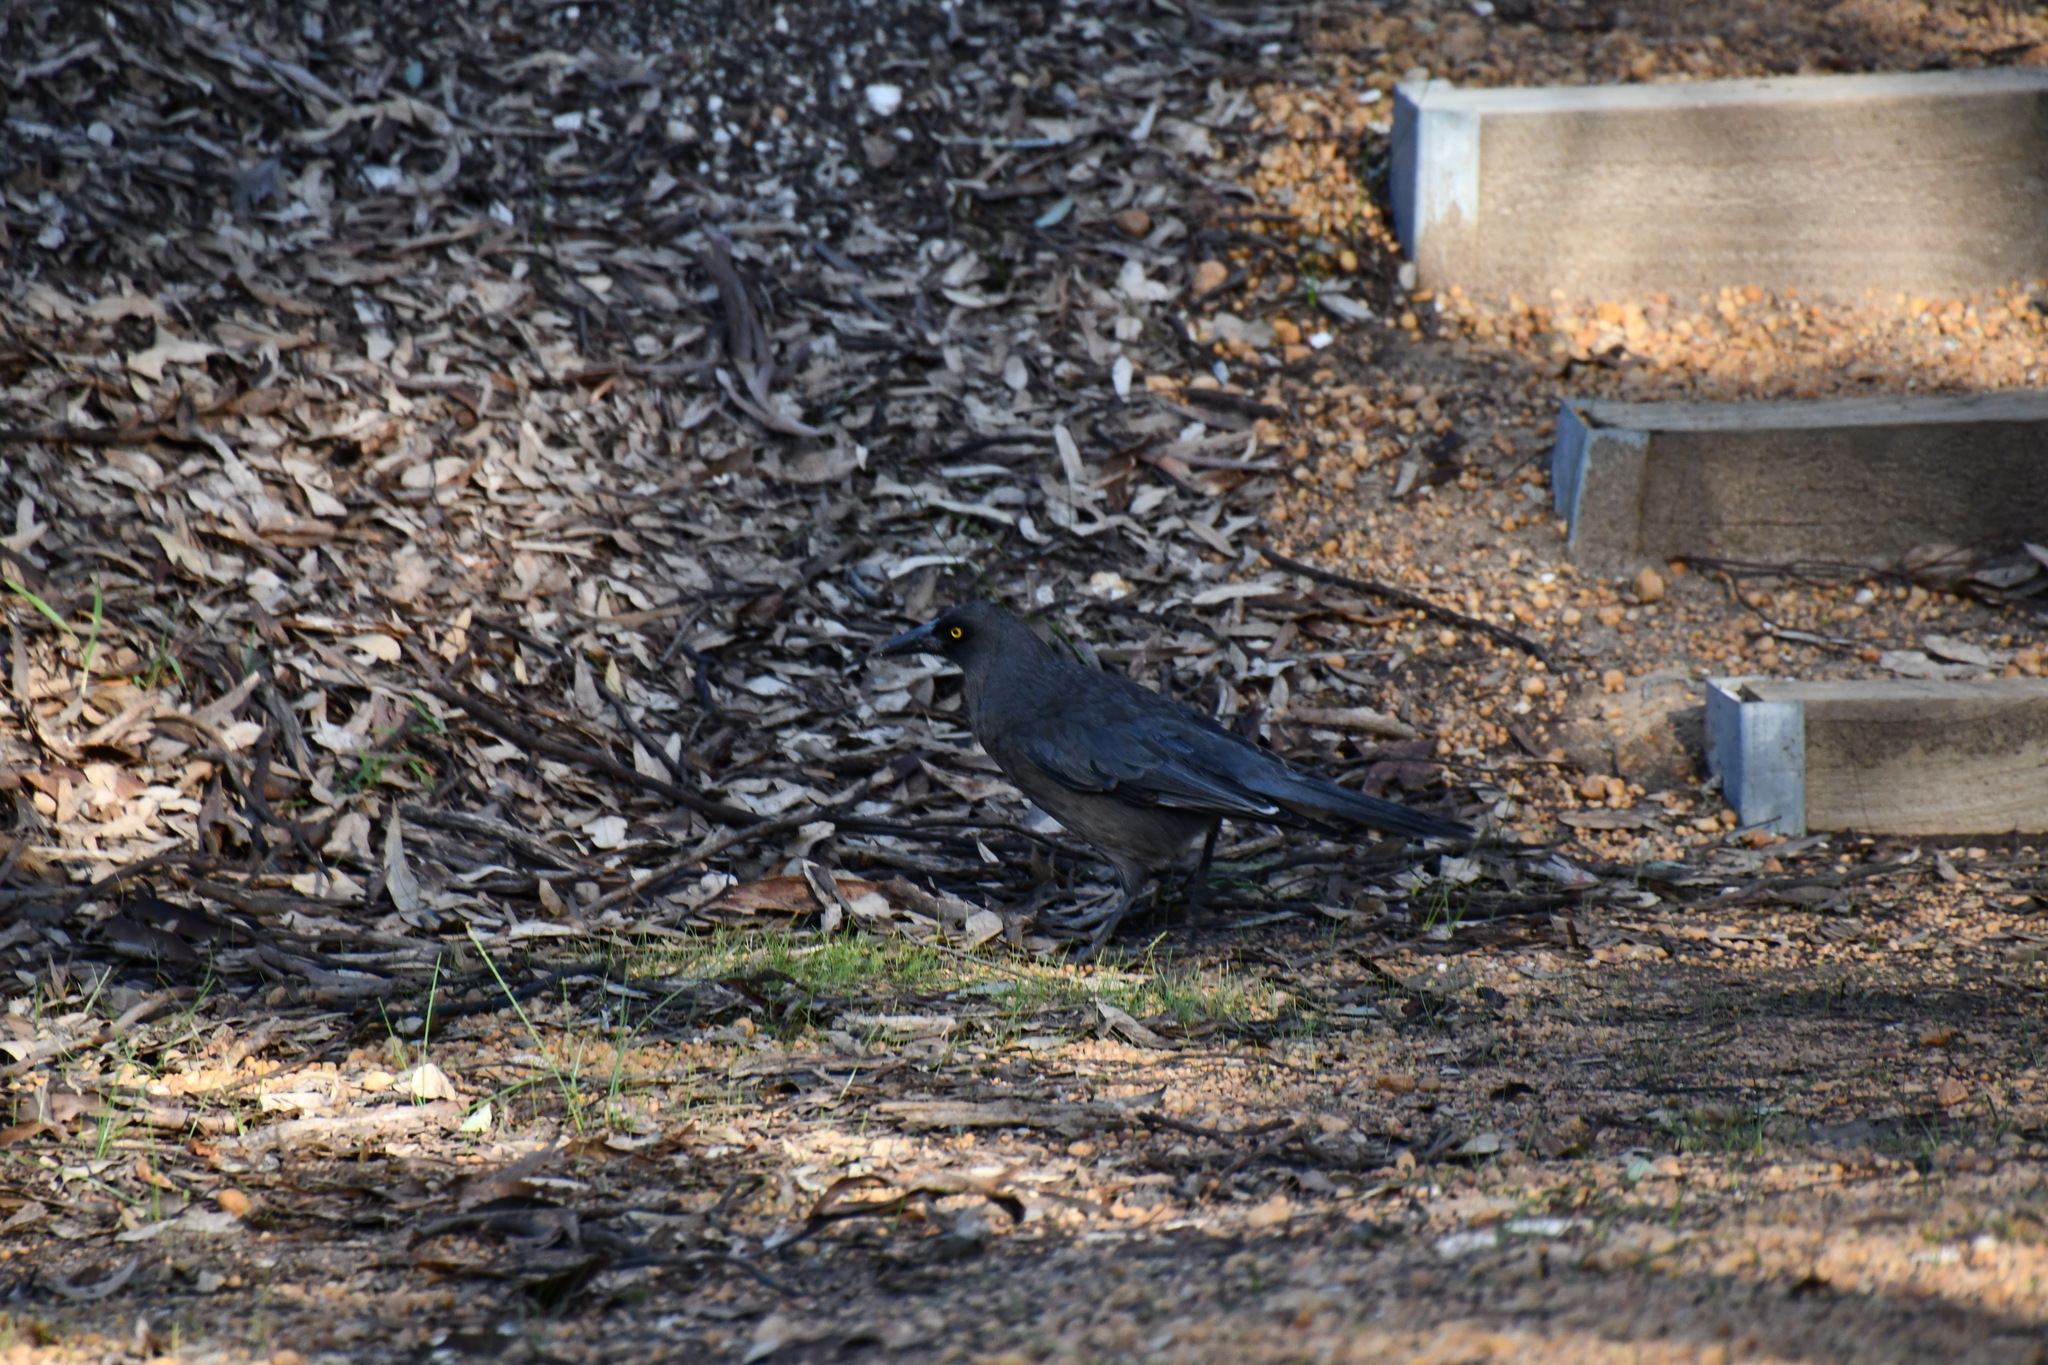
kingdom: Animalia
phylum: Chordata
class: Aves
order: Passeriformes
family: Cracticidae
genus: Strepera
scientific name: Strepera versicolor
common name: Grey currawong
